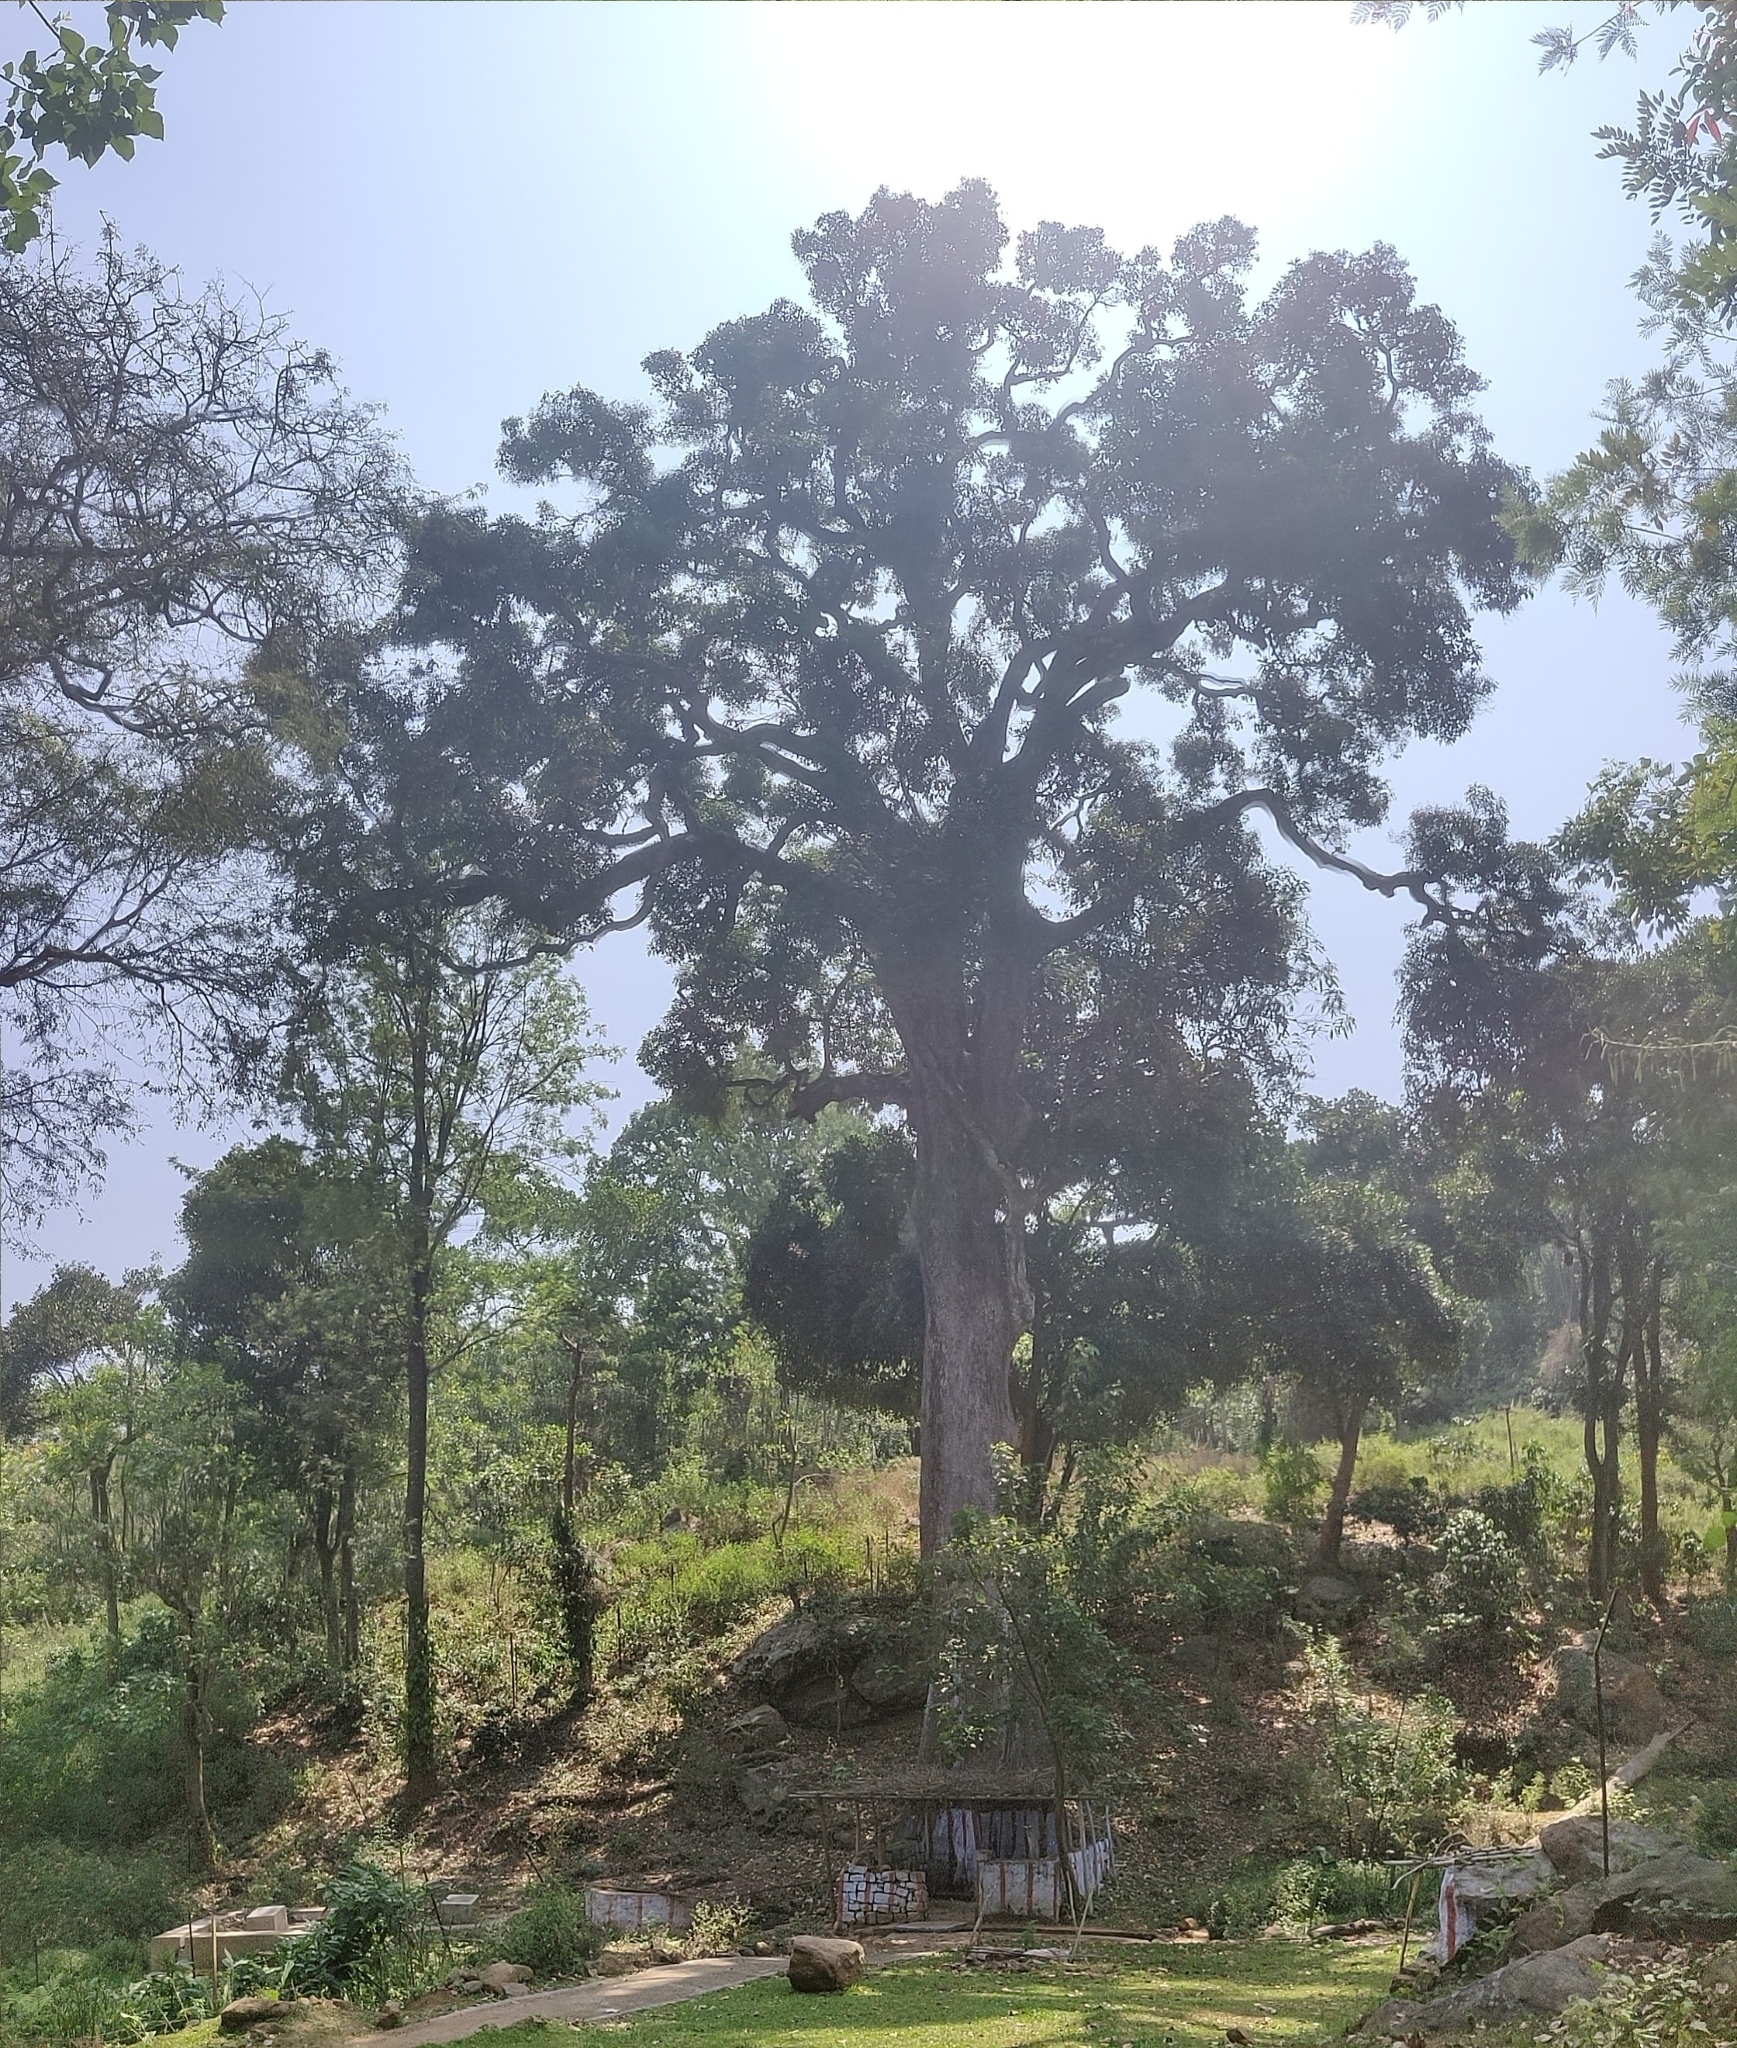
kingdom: Plantae
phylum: Tracheophyta
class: Magnoliopsida
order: Sapindales
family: Anacardiaceae
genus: Mangifera
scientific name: Mangifera indica
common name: Mango
